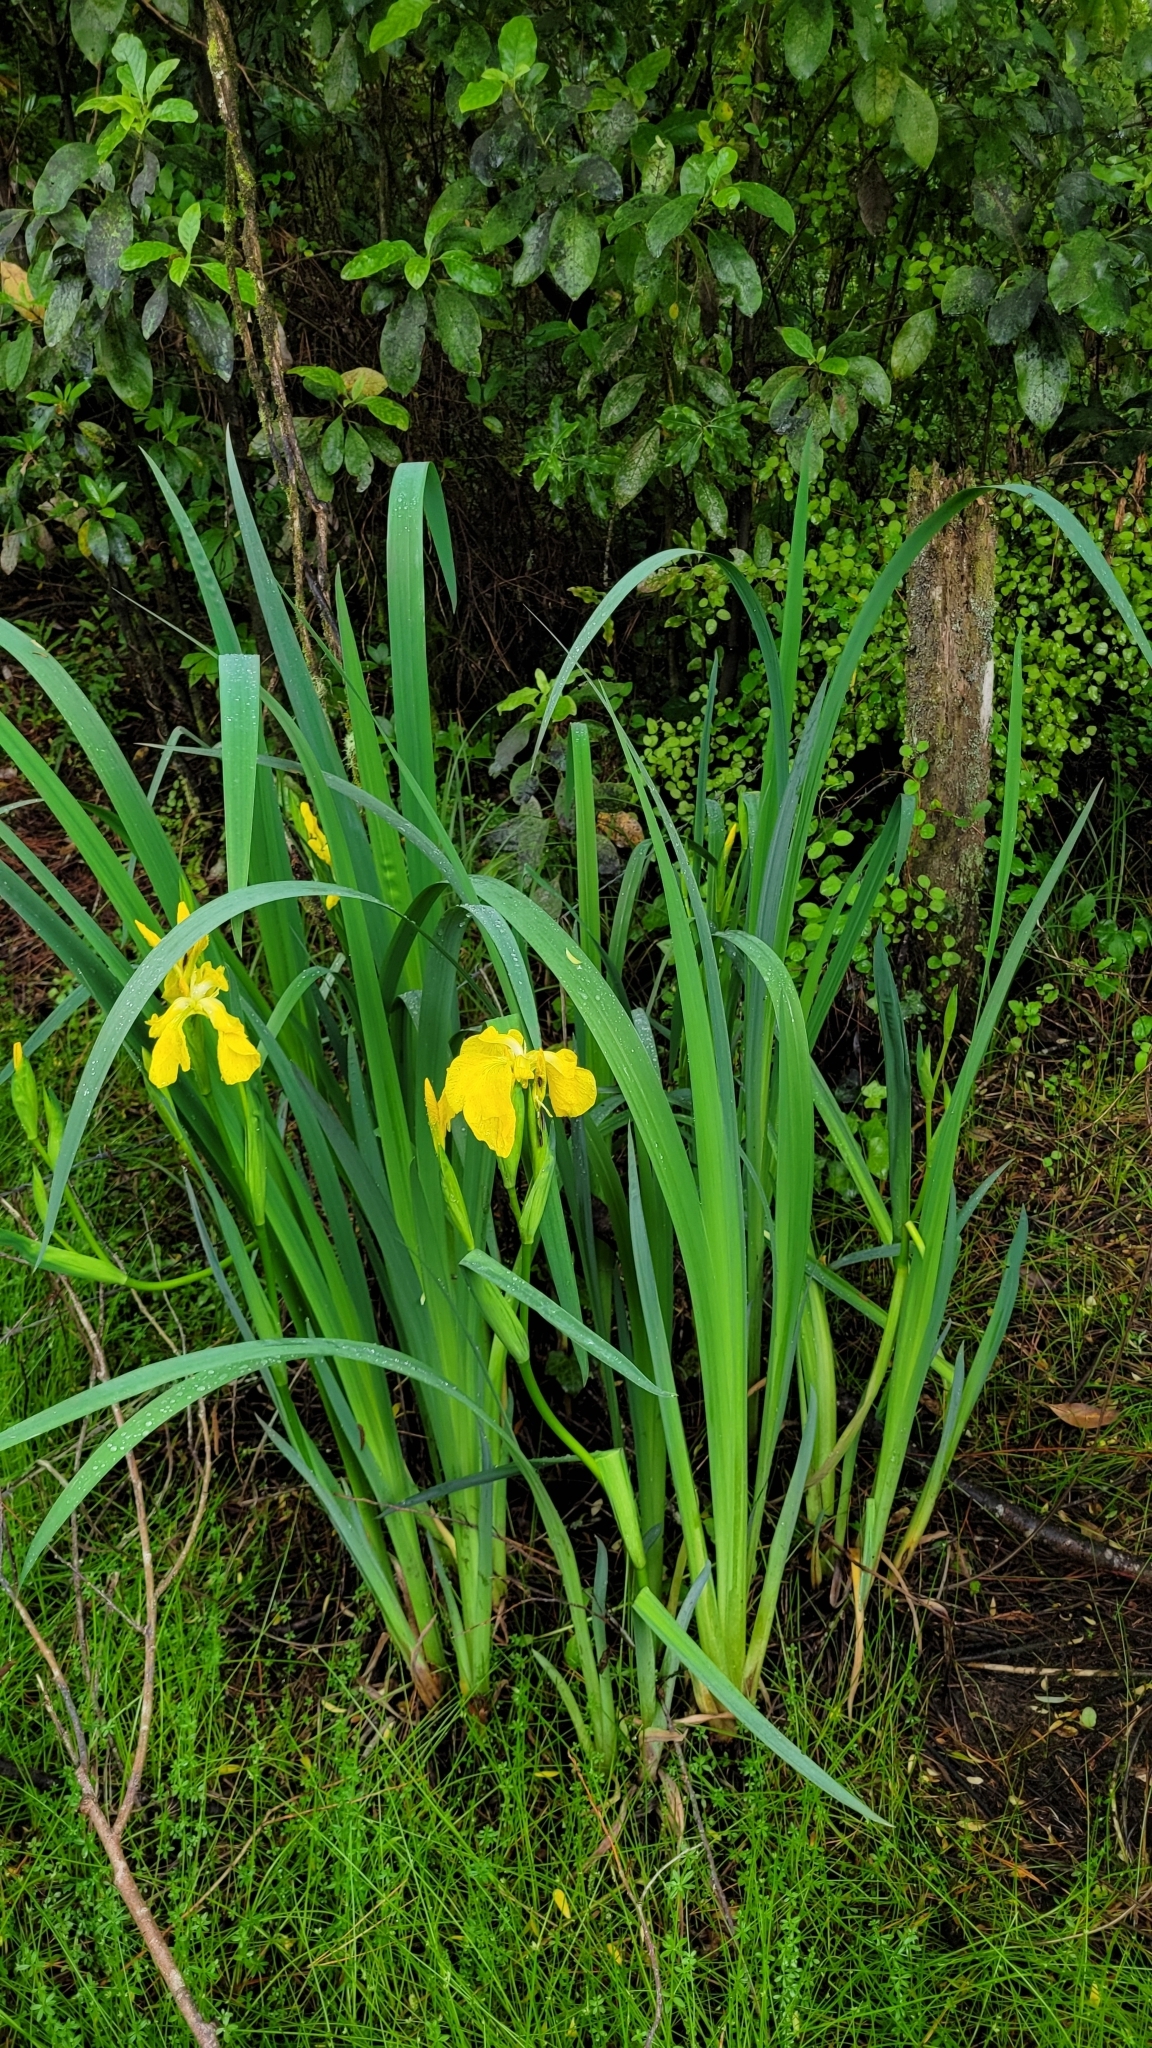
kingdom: Plantae
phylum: Tracheophyta
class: Liliopsida
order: Asparagales
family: Iridaceae
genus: Iris
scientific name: Iris pseudacorus
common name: Yellow flag
